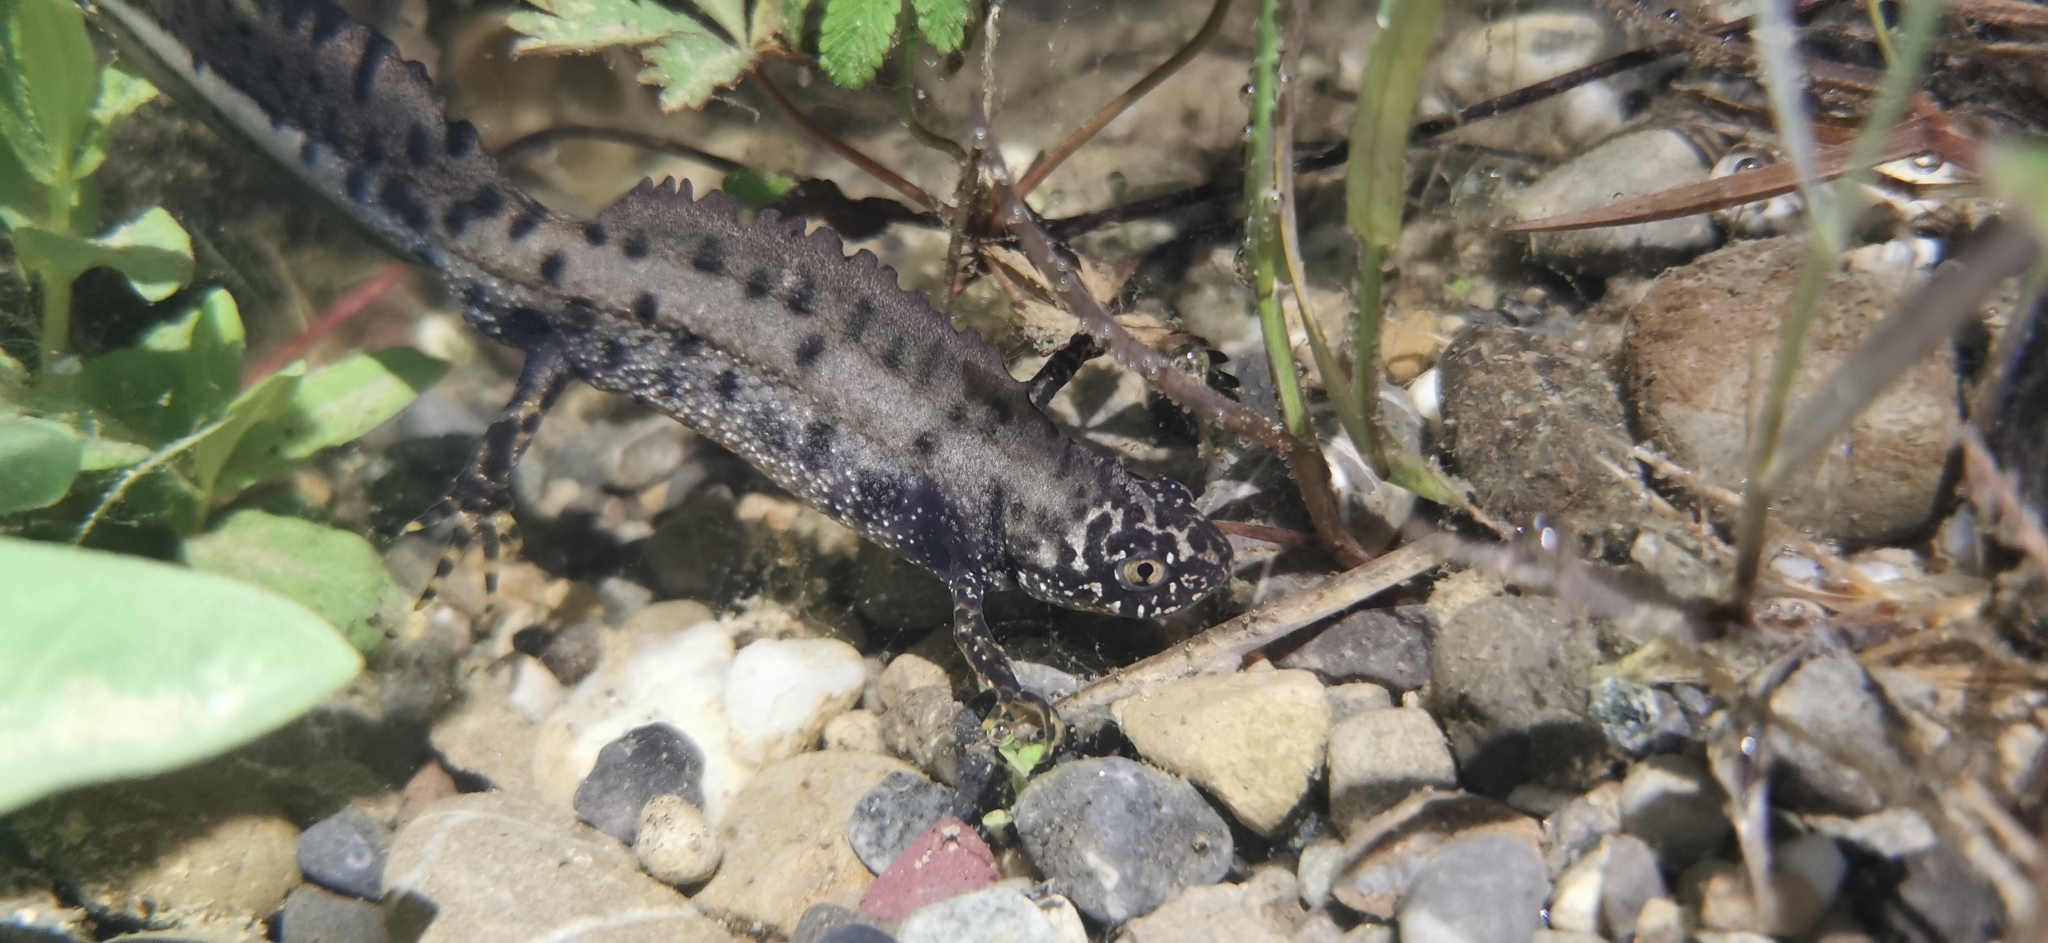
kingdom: Animalia
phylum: Chordata
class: Amphibia
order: Caudata
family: Salamandridae
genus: Triturus
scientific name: Triturus cristatus
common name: Crested newt
